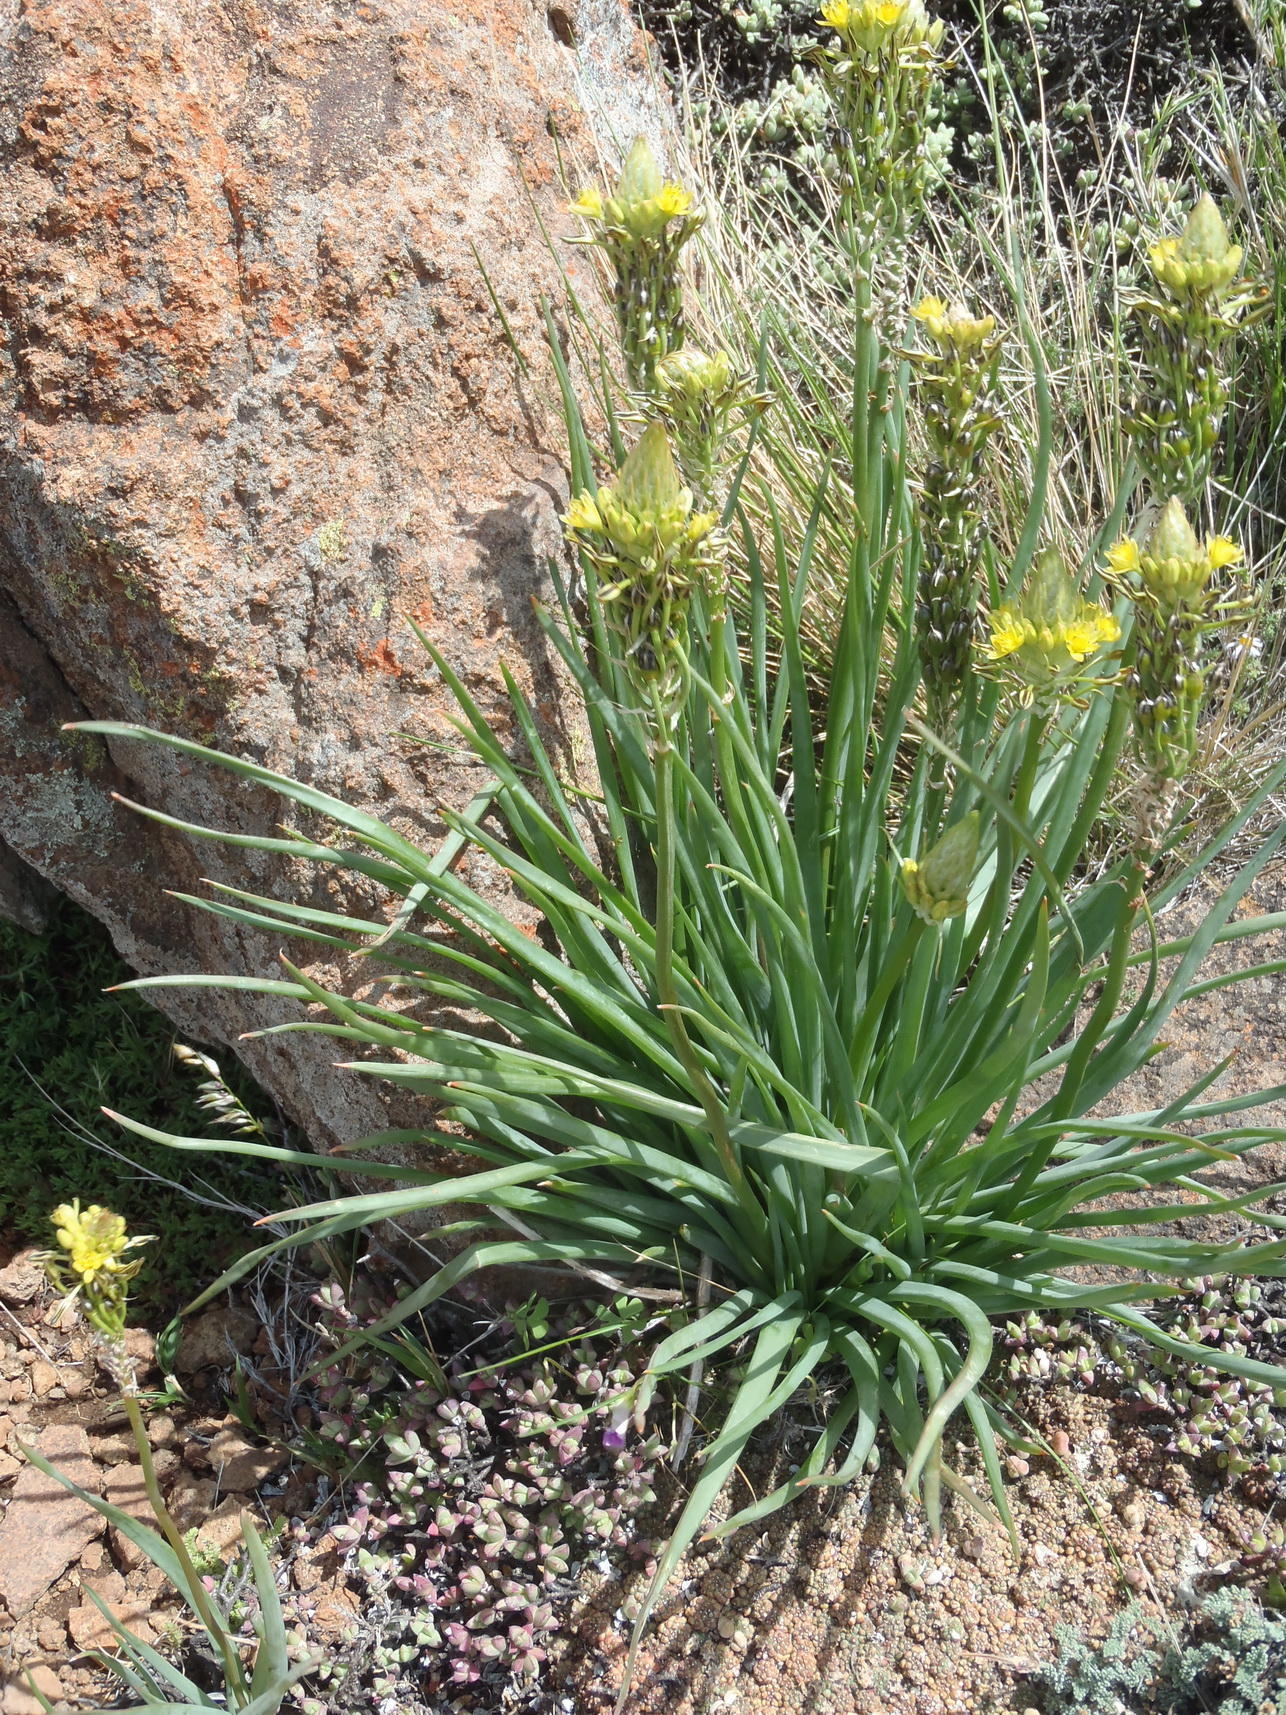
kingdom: Plantae
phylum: Tracheophyta
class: Liliopsida
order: Asparagales
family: Asphodelaceae
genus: Bulbine
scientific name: Bulbine abyssinica
